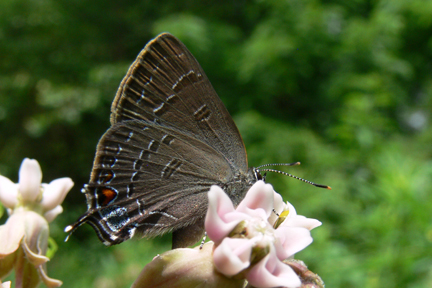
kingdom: Animalia
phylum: Arthropoda
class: Insecta
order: Lepidoptera
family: Lycaenidae
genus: Satyrium
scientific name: Satyrium calanus
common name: Banded hairstreak
